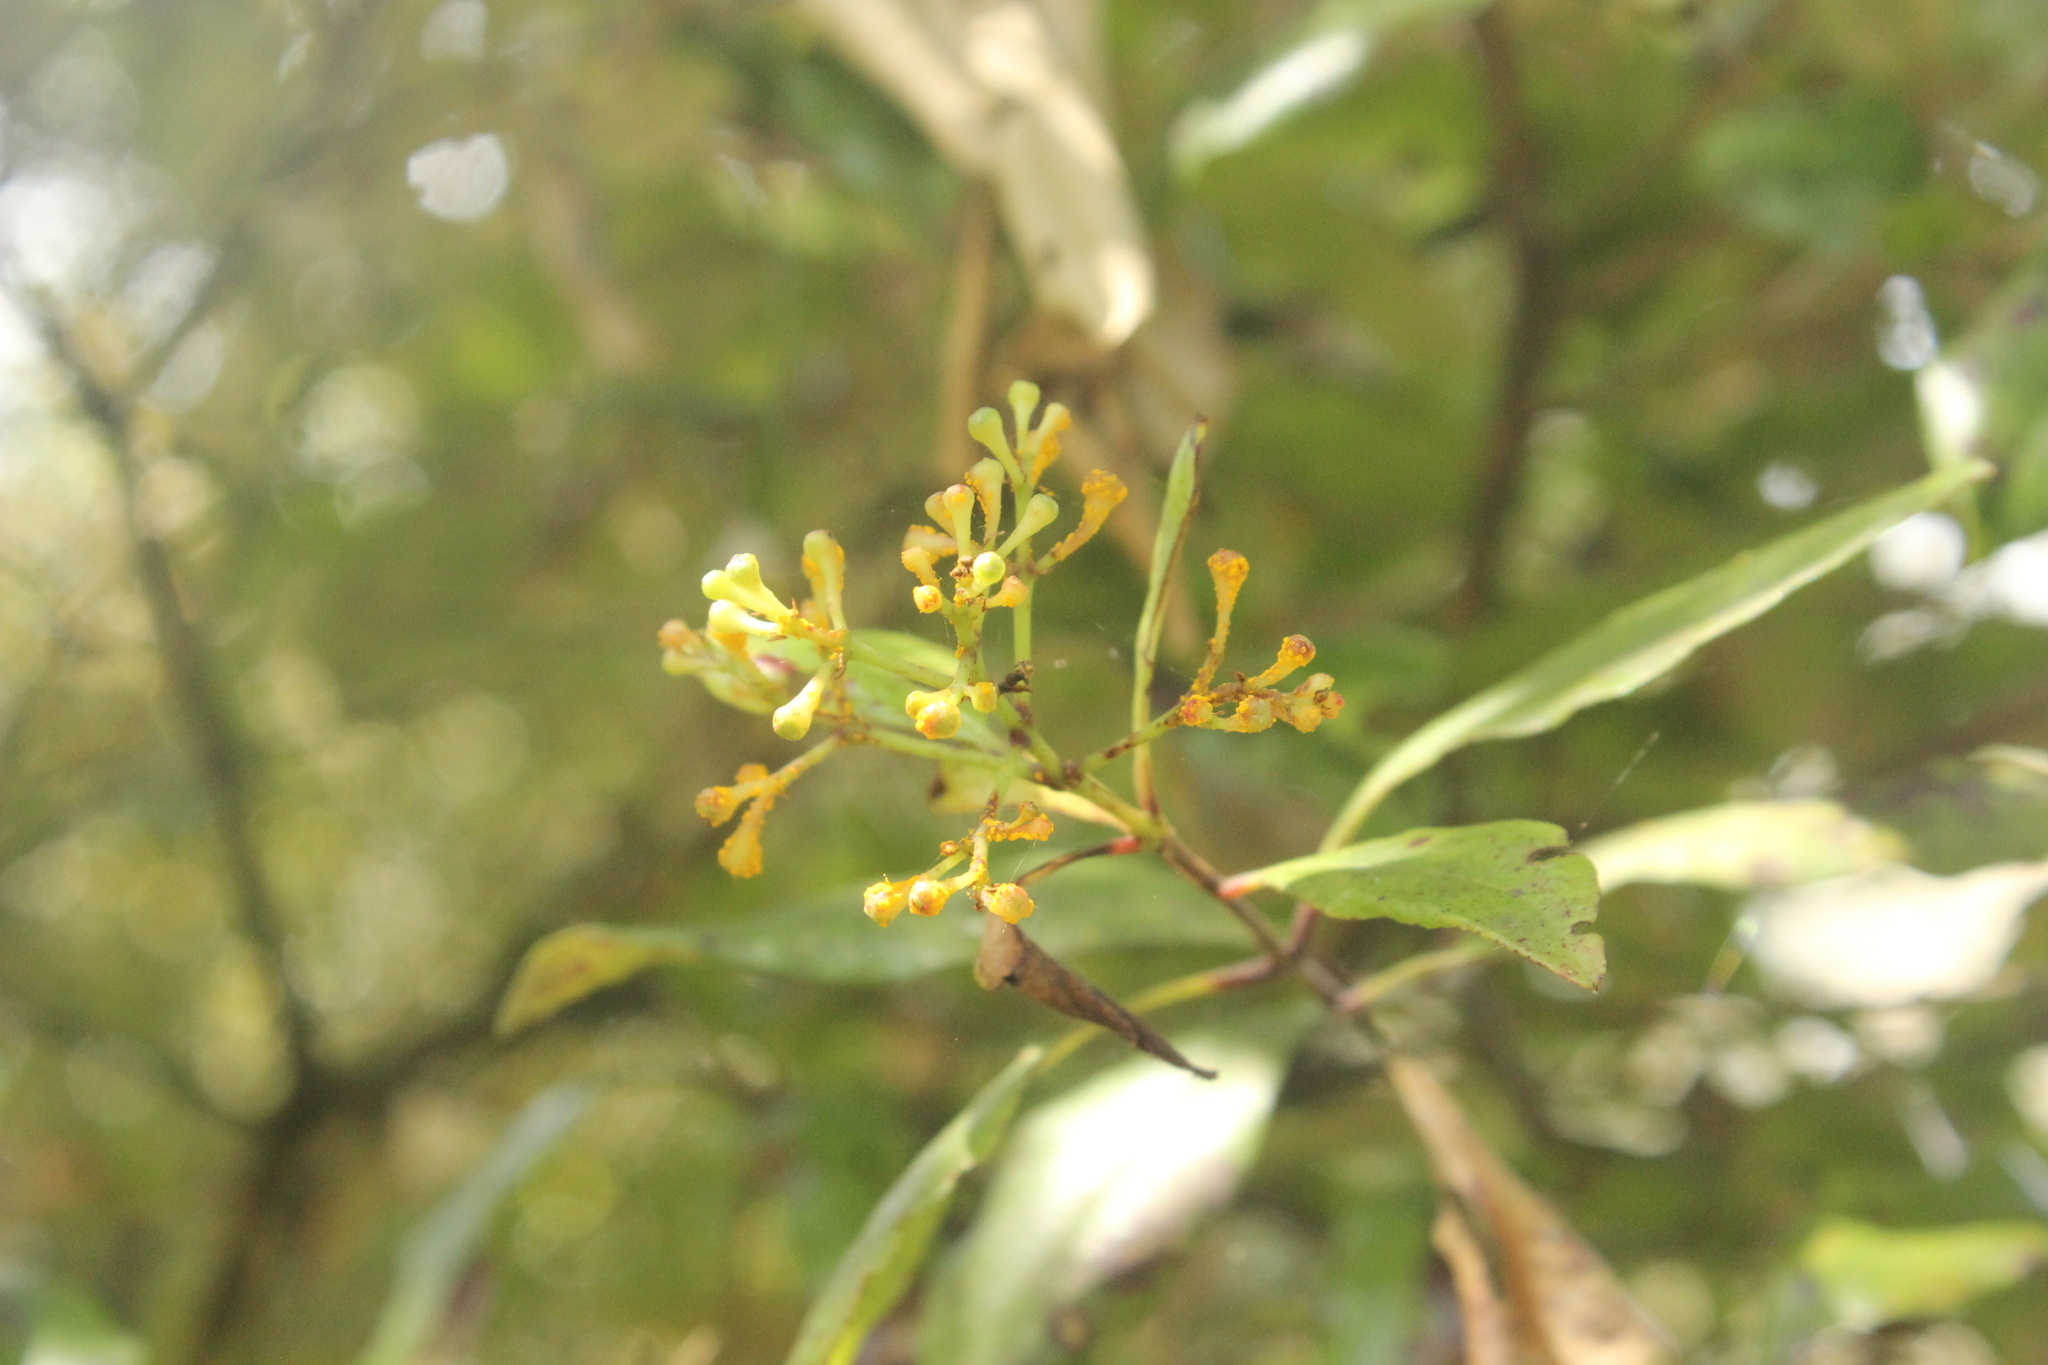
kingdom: Fungi
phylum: Basidiomycota
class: Pucciniomycetes
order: Pucciniales
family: Sphaerophragmiaceae
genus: Austropuccinia
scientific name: Austropuccinia psidii
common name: Myrtle rust
